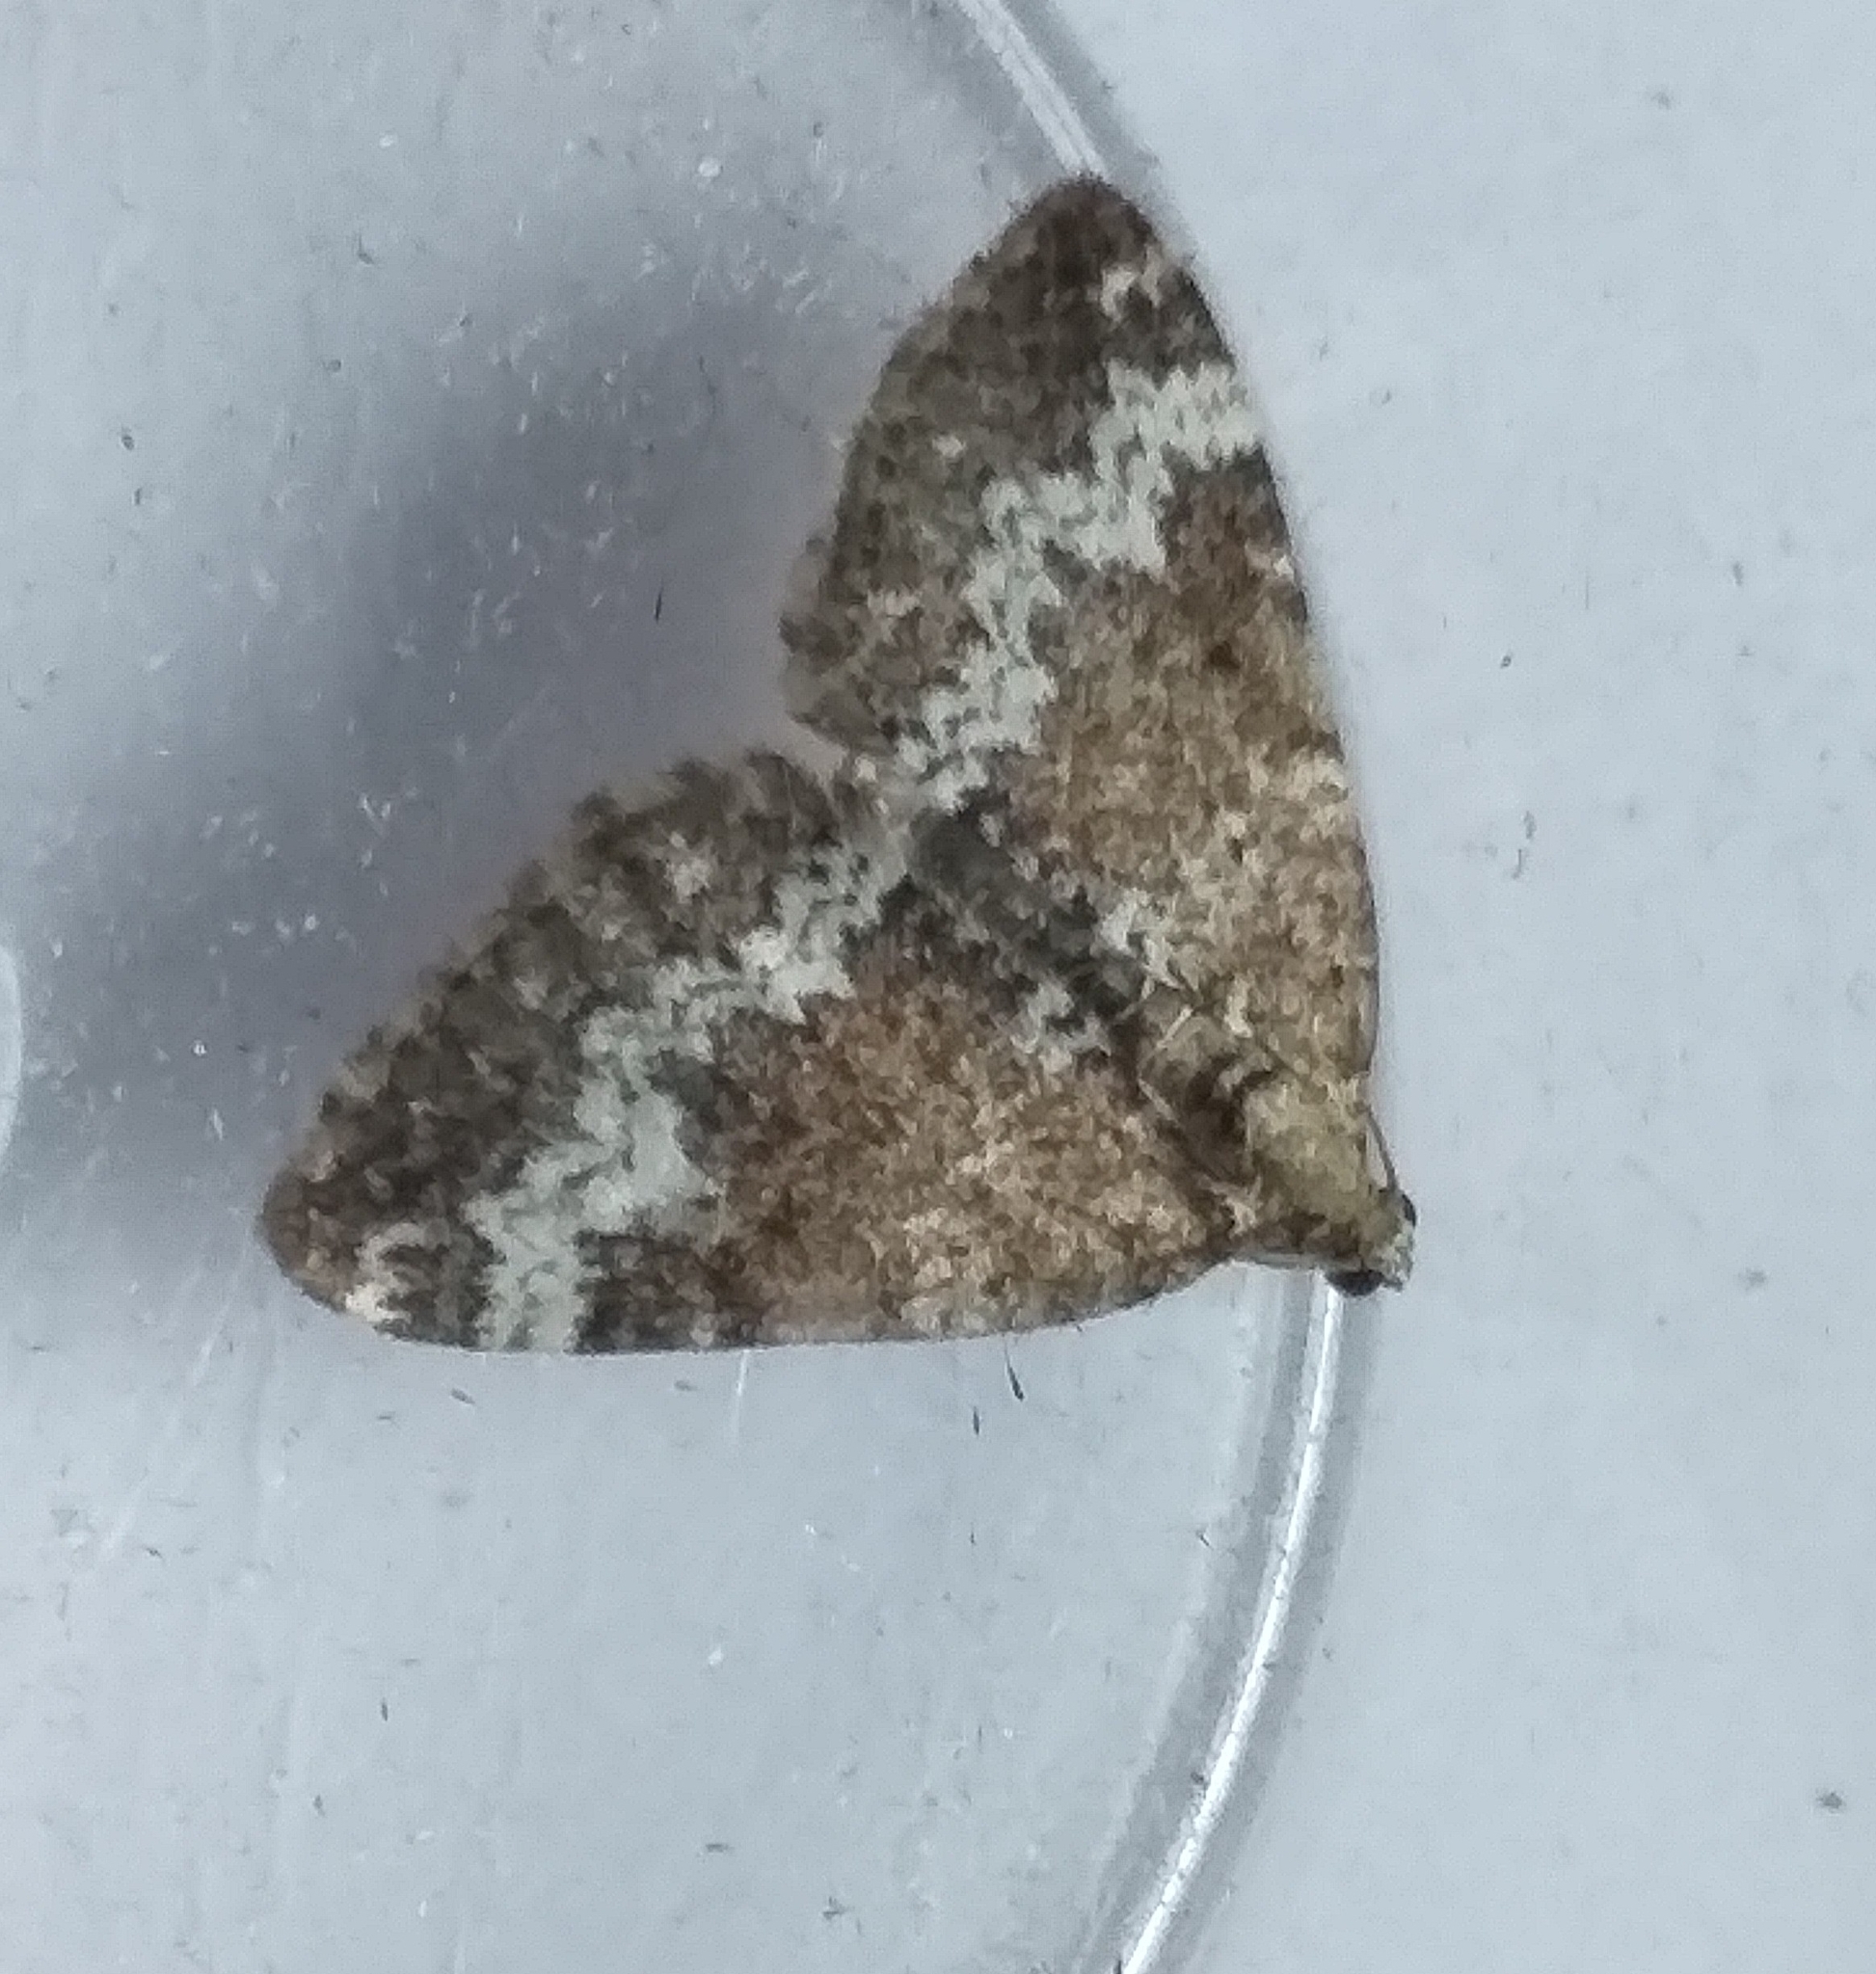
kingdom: Animalia
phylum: Arthropoda
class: Insecta
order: Lepidoptera
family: Geometridae
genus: Perizoma
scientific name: Perizoma alchemillata
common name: Small rivulet
